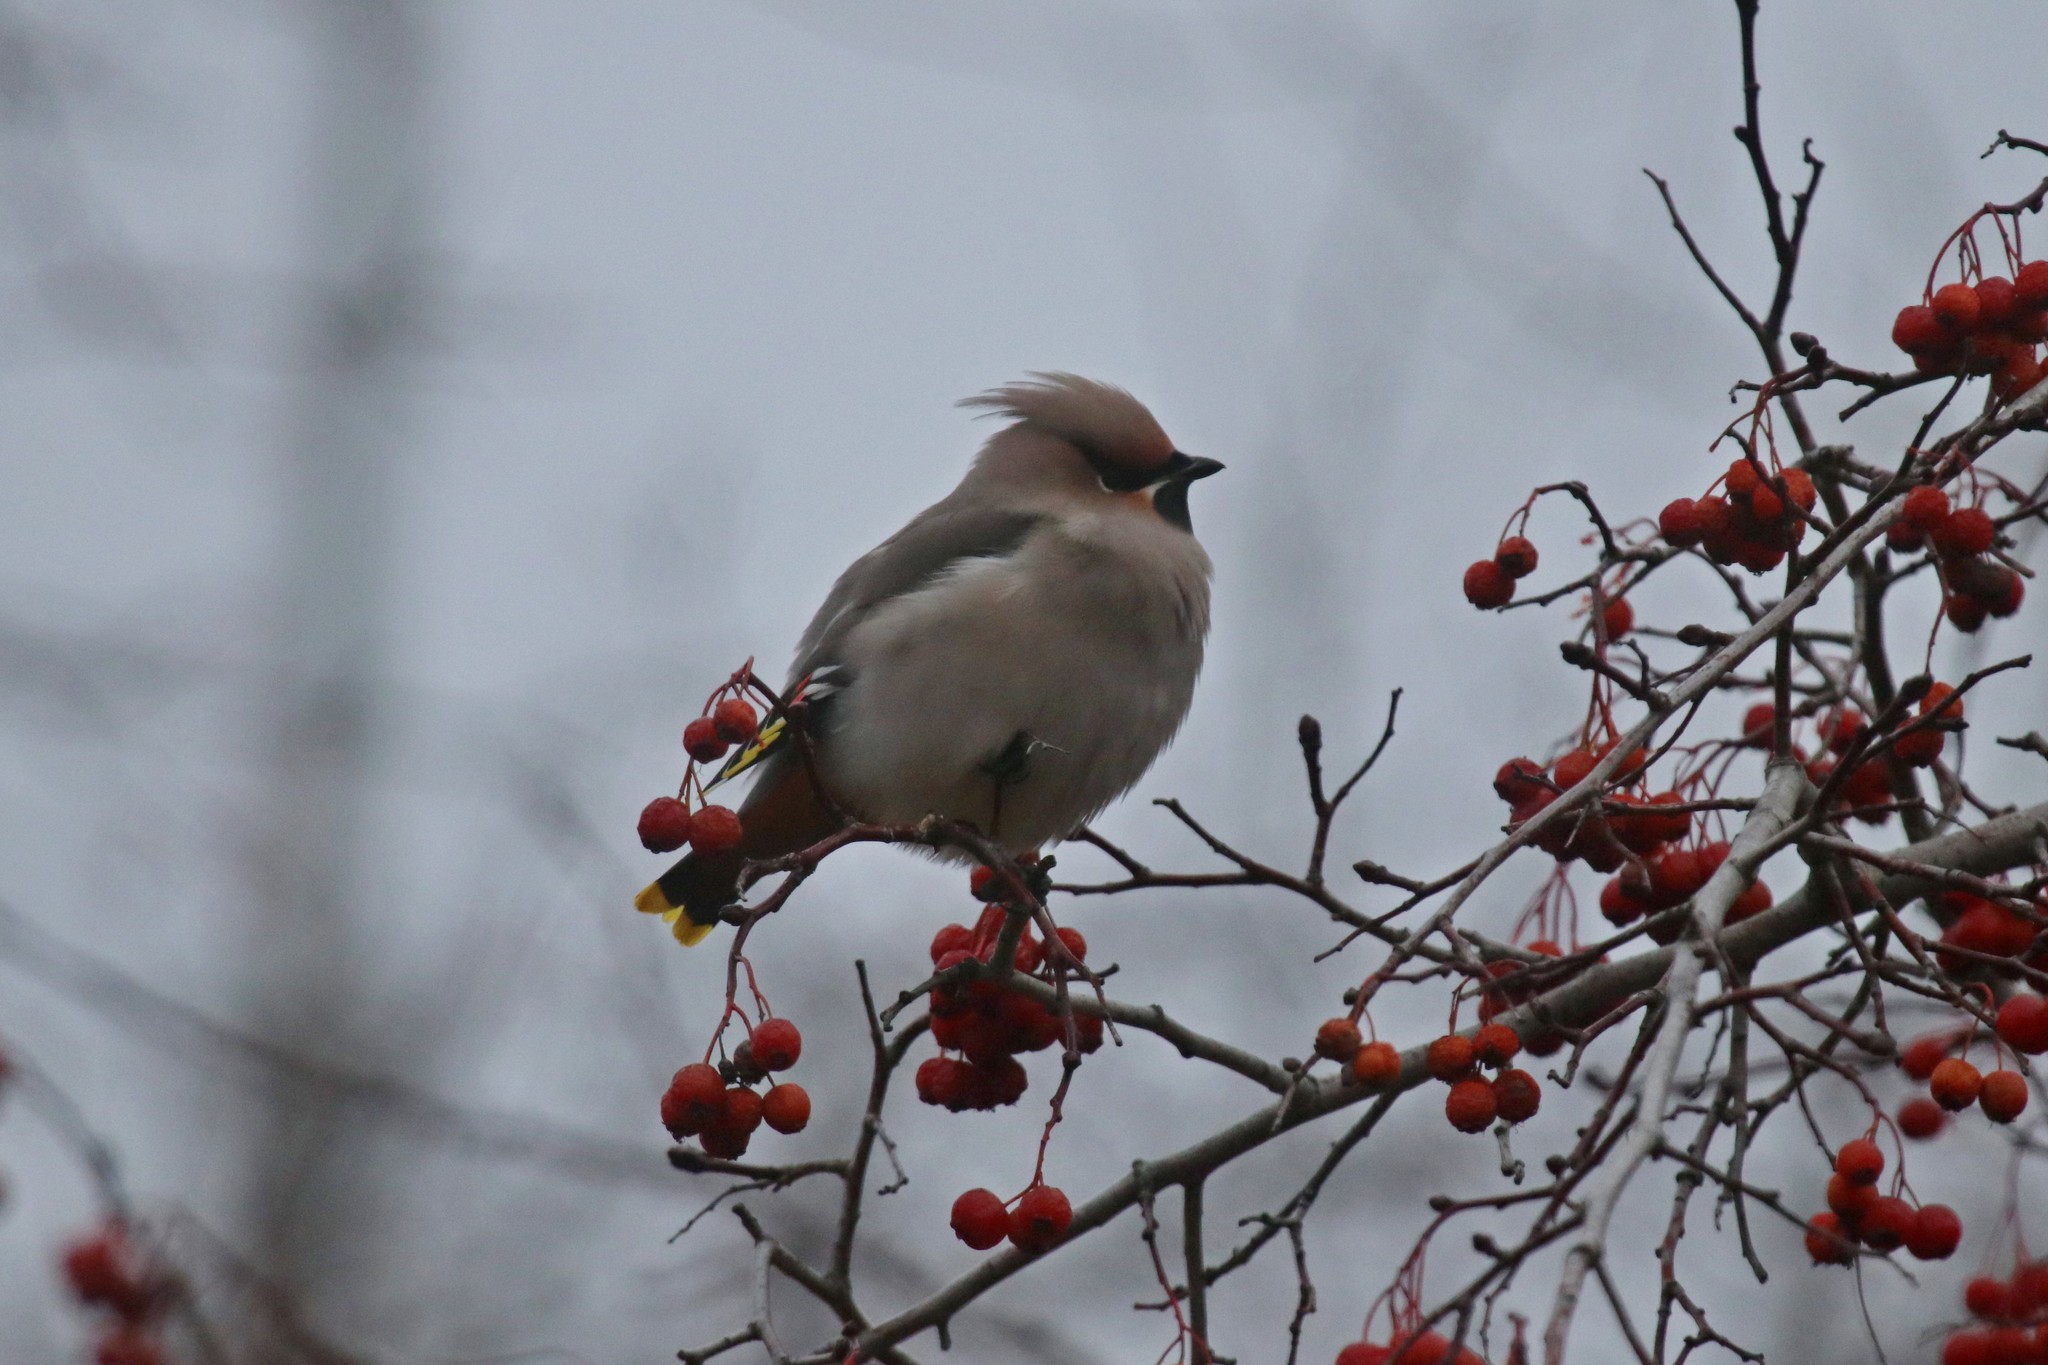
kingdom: Animalia
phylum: Chordata
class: Aves
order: Passeriformes
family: Bombycillidae
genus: Bombycilla
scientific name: Bombycilla garrulus
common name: Bohemian waxwing
